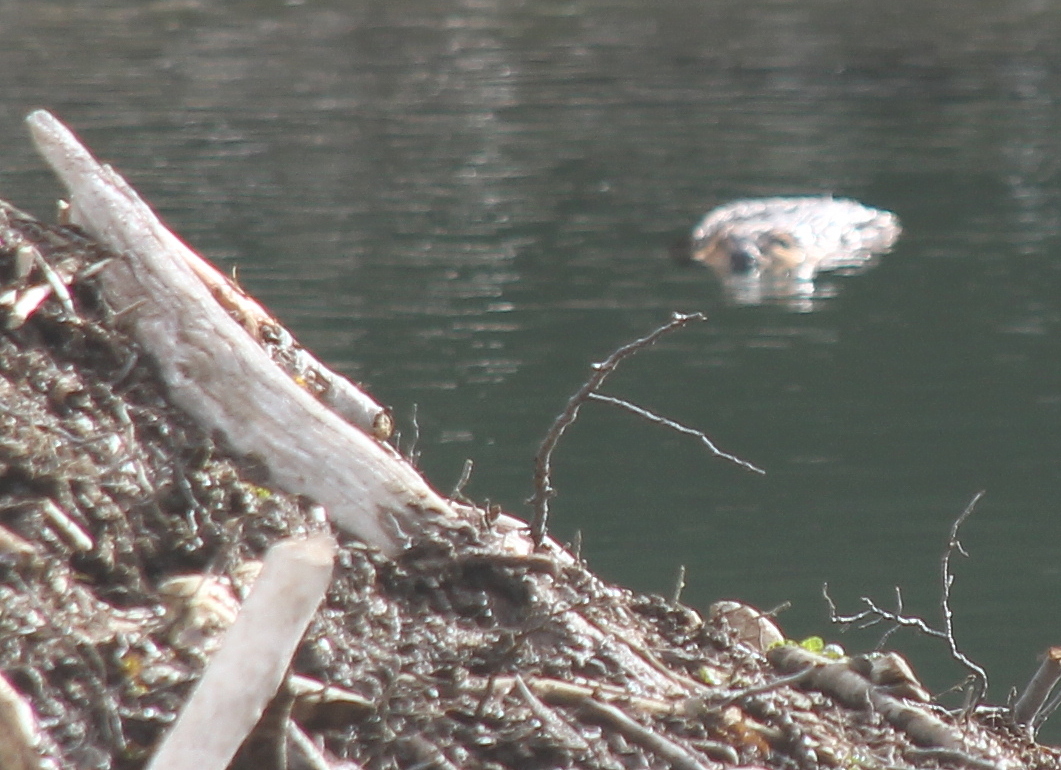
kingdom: Animalia
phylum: Chordata
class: Mammalia
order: Rodentia
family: Castoridae
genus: Castor
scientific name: Castor canadensis
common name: American beaver
